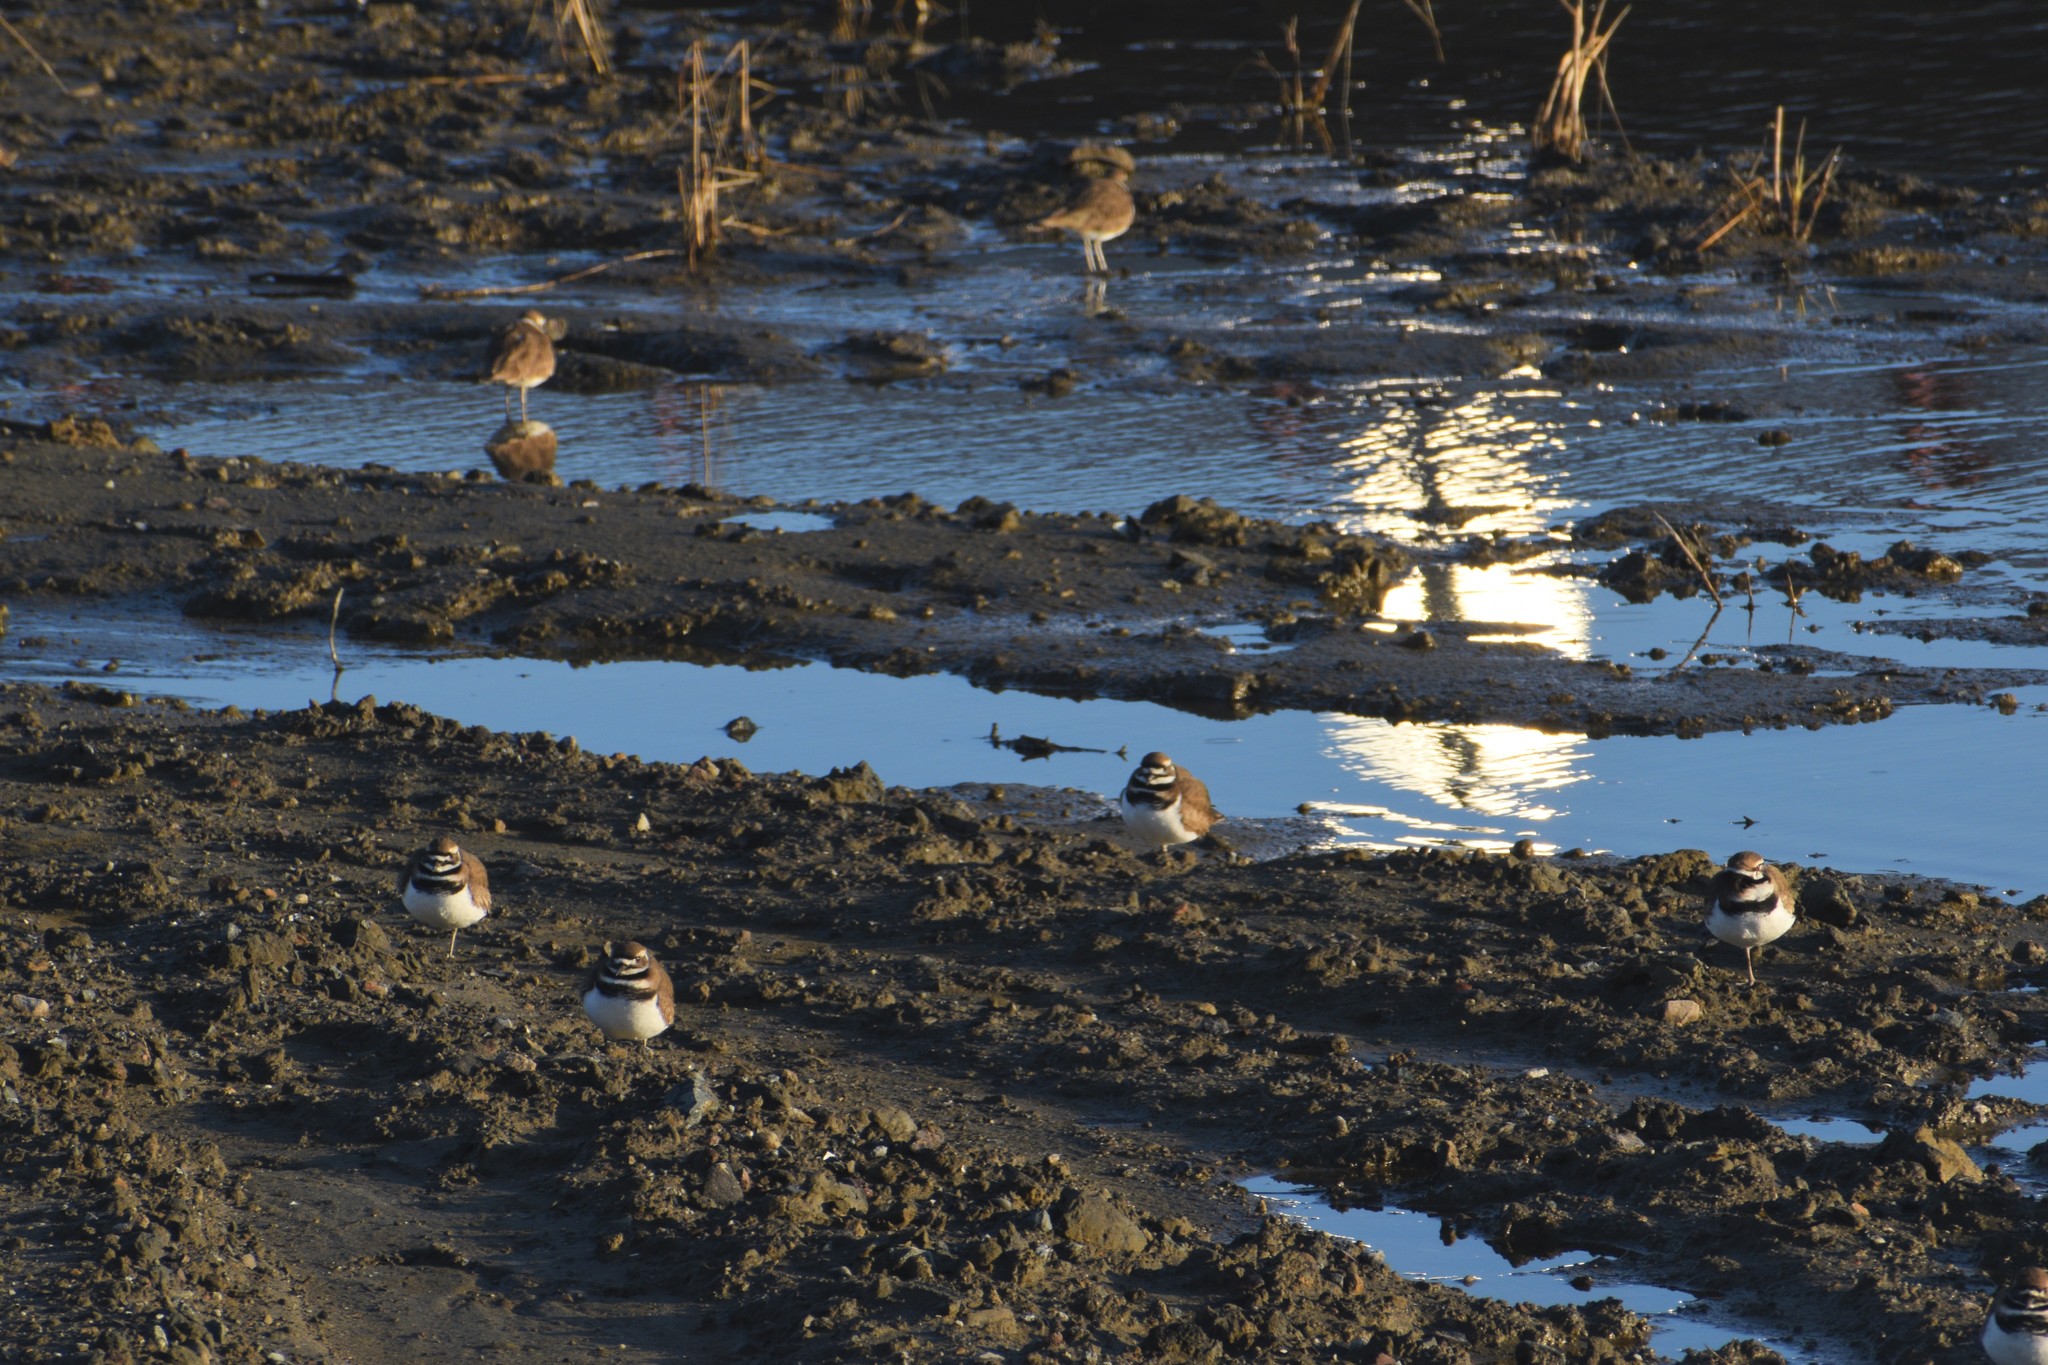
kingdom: Animalia
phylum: Chordata
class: Aves
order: Charadriiformes
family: Charadriidae
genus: Charadrius
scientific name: Charadrius vociferus
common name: Killdeer
